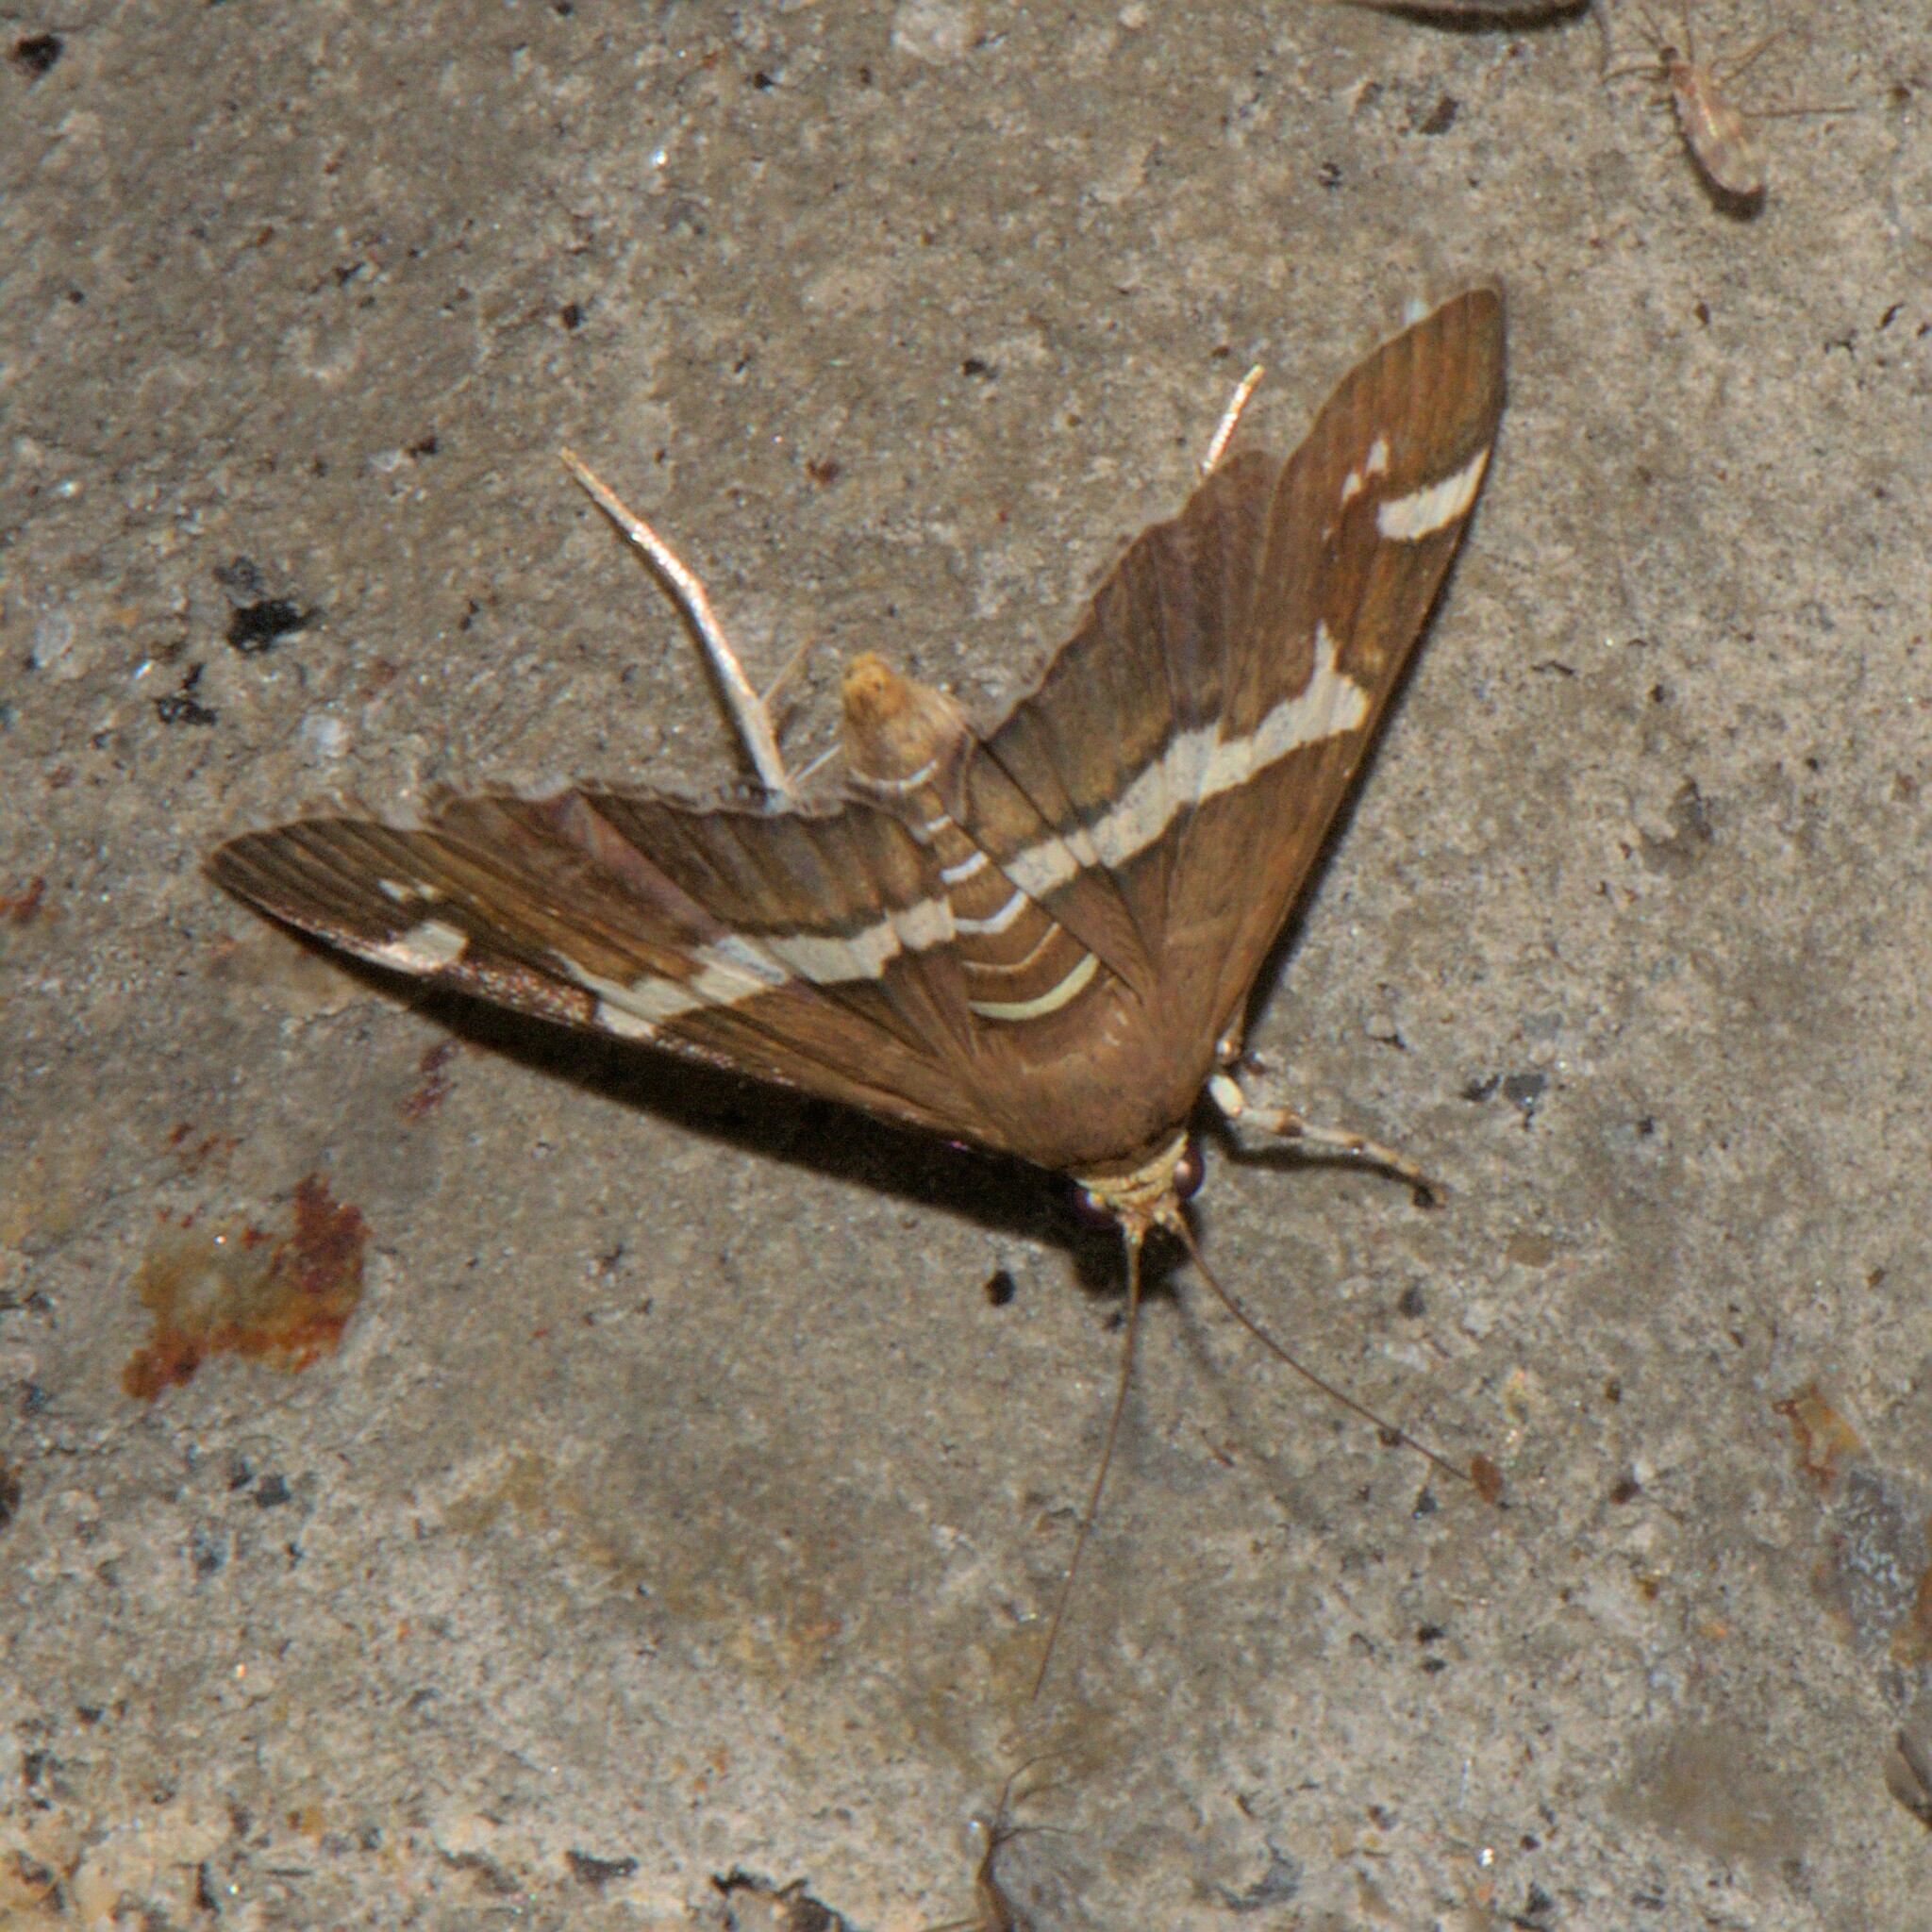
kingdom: Animalia
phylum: Arthropoda
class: Insecta
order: Lepidoptera
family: Crambidae
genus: Spoladea
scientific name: Spoladea recurvalis
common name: Beet webworm moth
